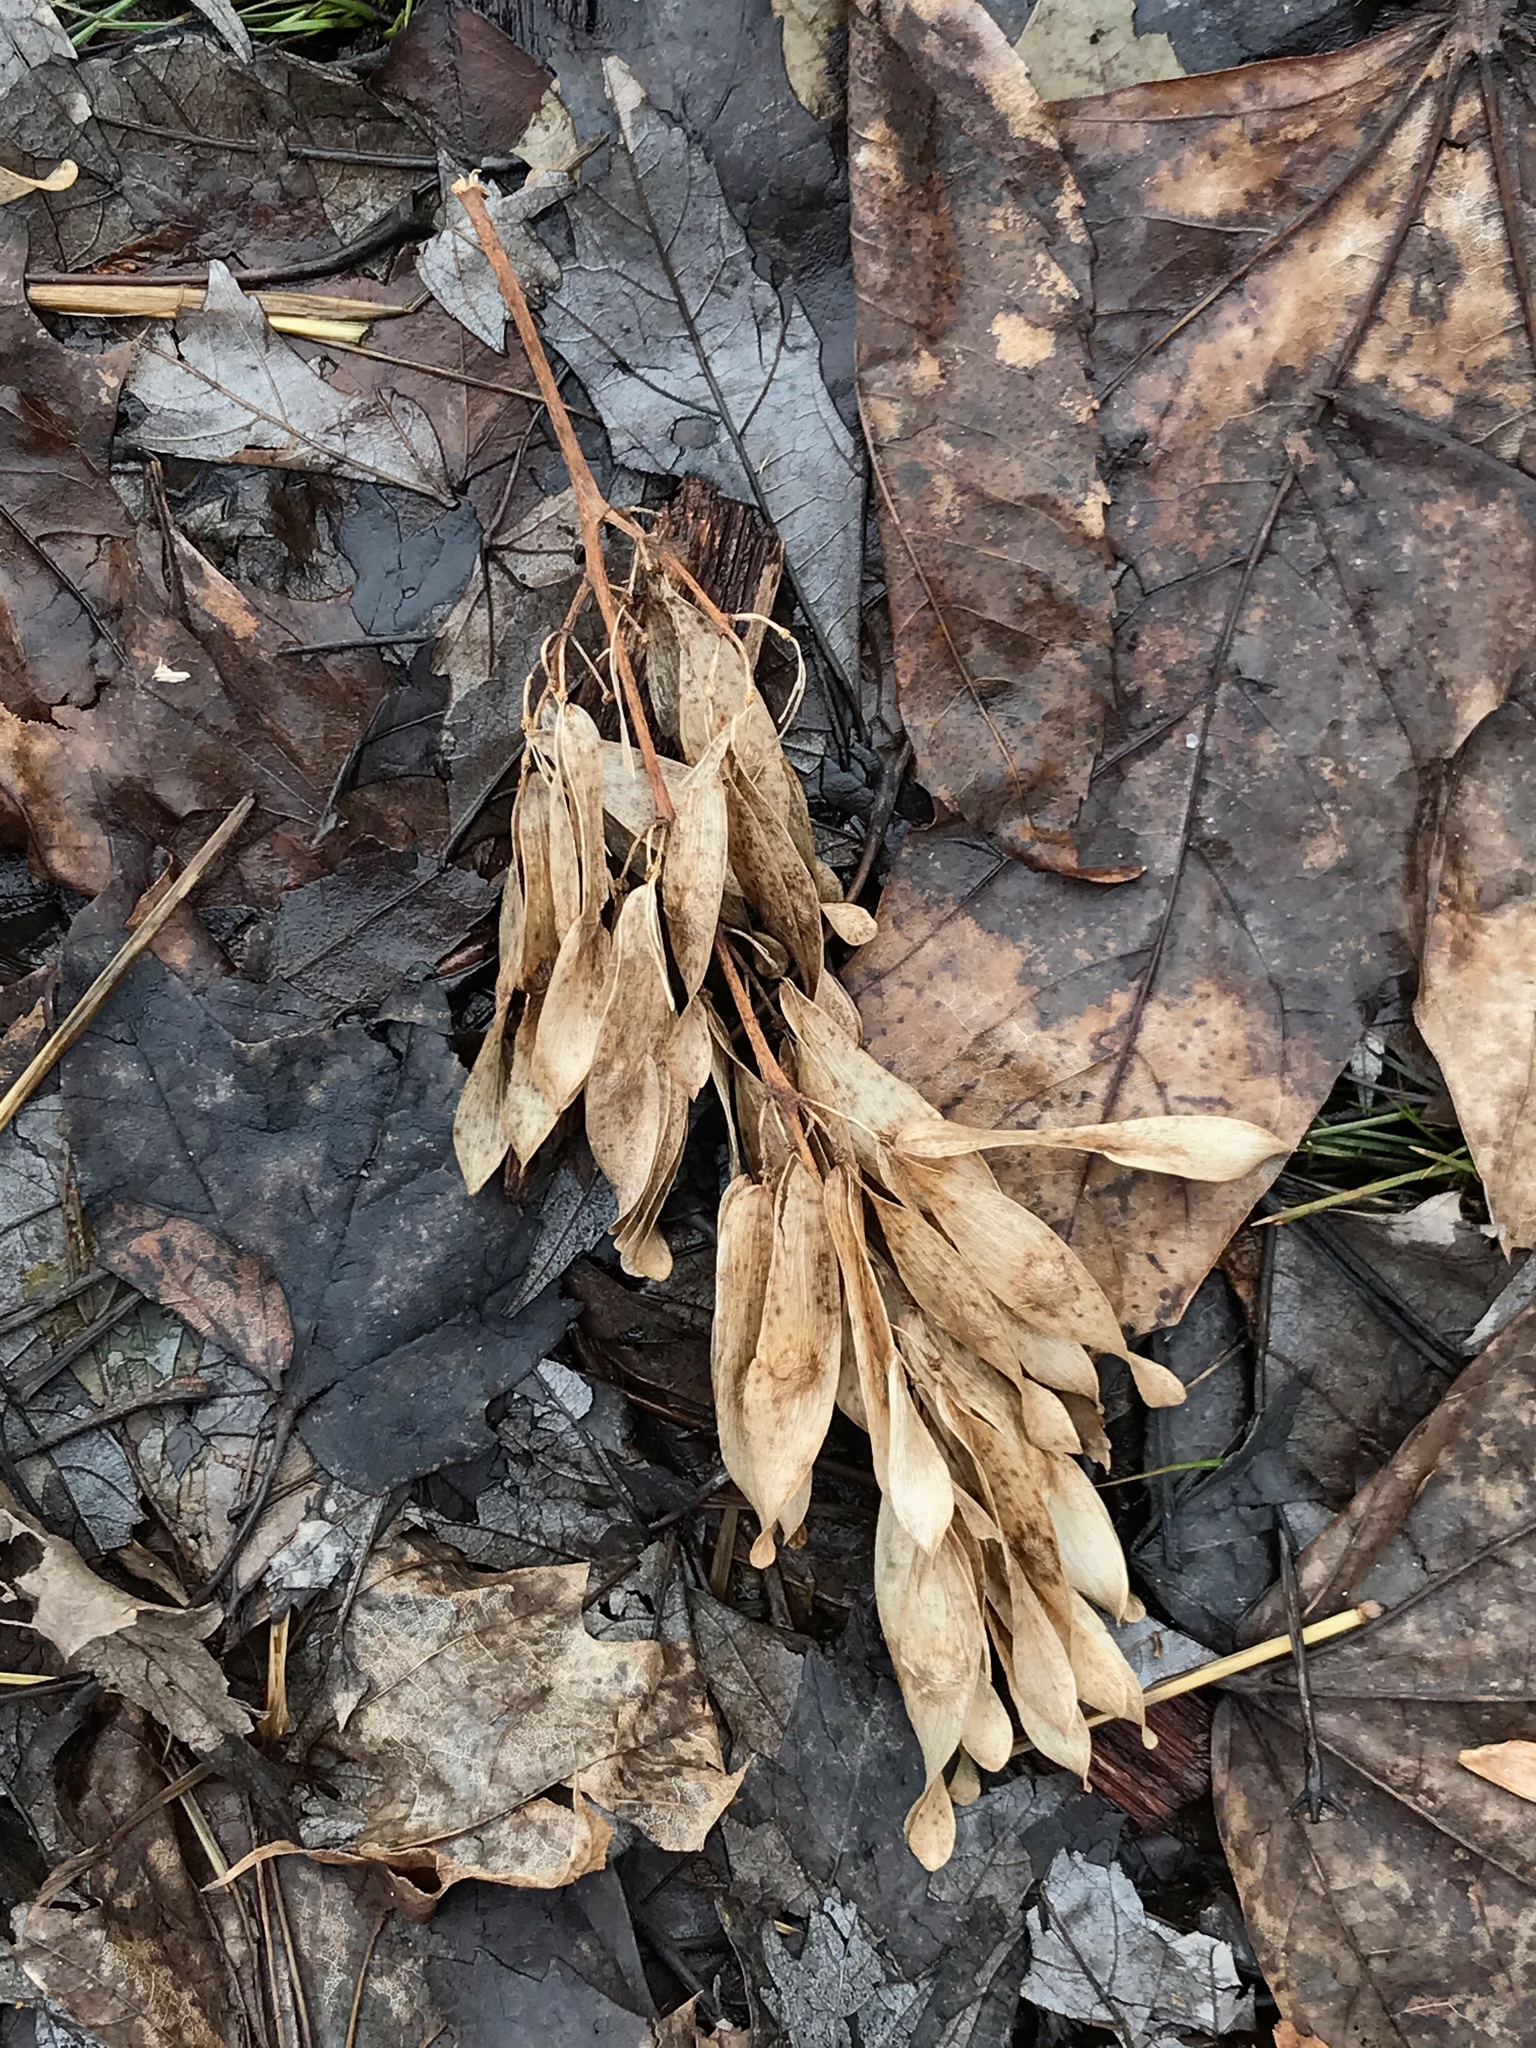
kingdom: Plantae
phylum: Tracheophyta
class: Magnoliopsida
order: Sapindales
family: Simaroubaceae
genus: Ailanthus
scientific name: Ailanthus altissima
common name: Tree-of-heaven
